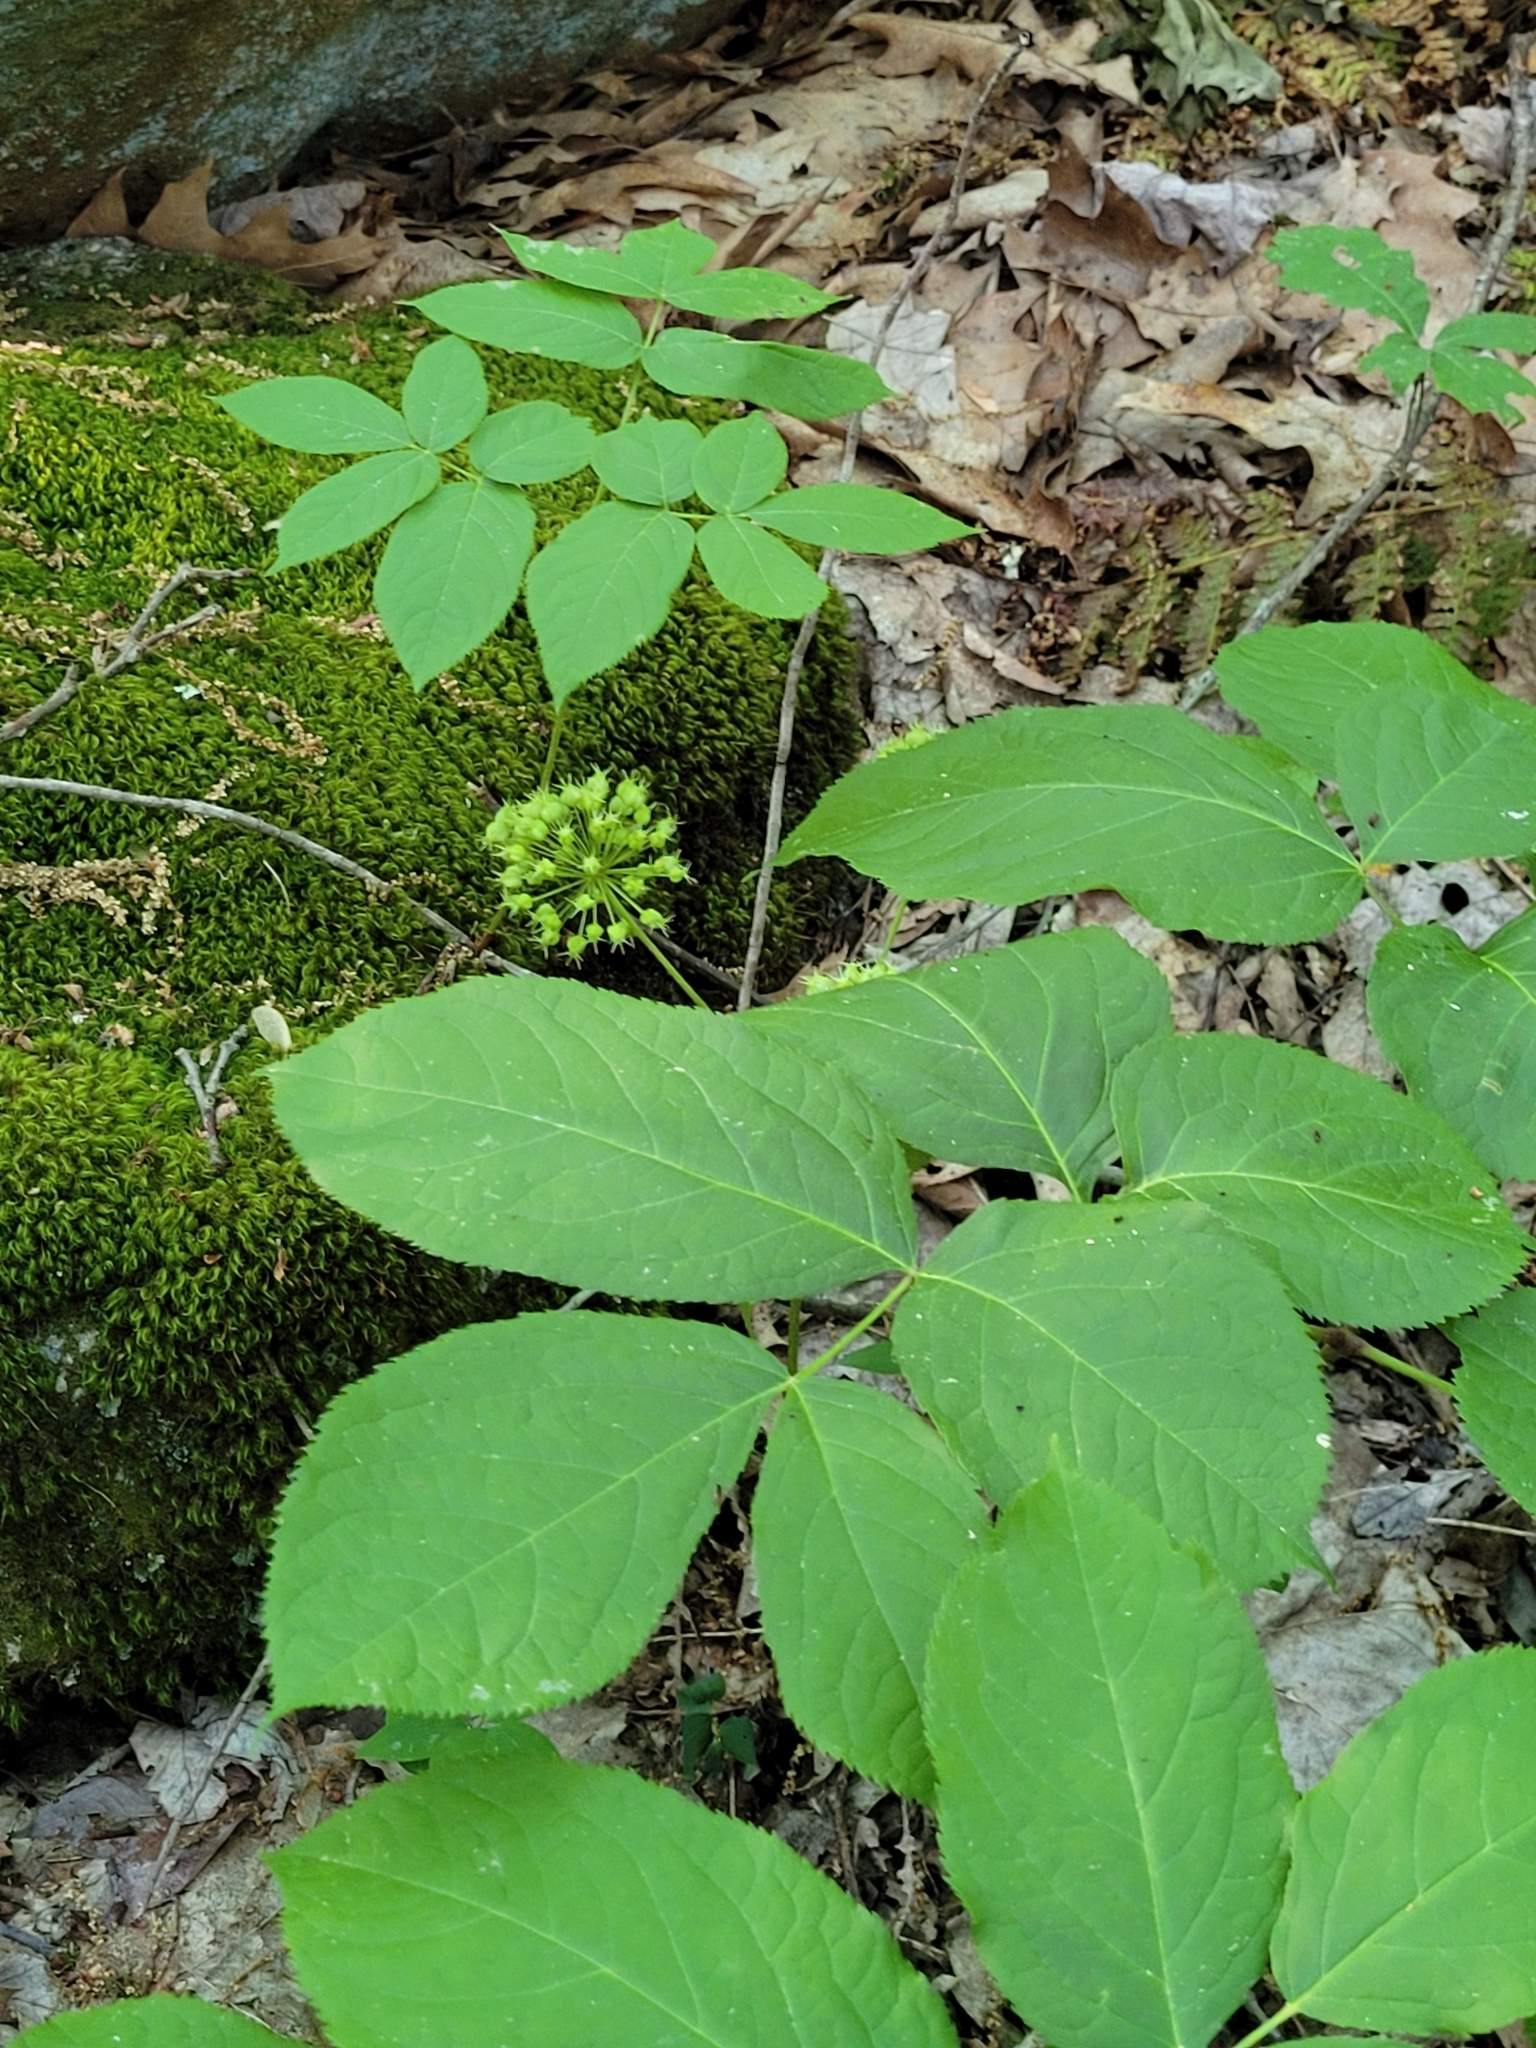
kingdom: Plantae
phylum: Tracheophyta
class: Magnoliopsida
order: Apiales
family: Araliaceae
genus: Aralia
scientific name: Aralia nudicaulis
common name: Wild sarsaparilla
